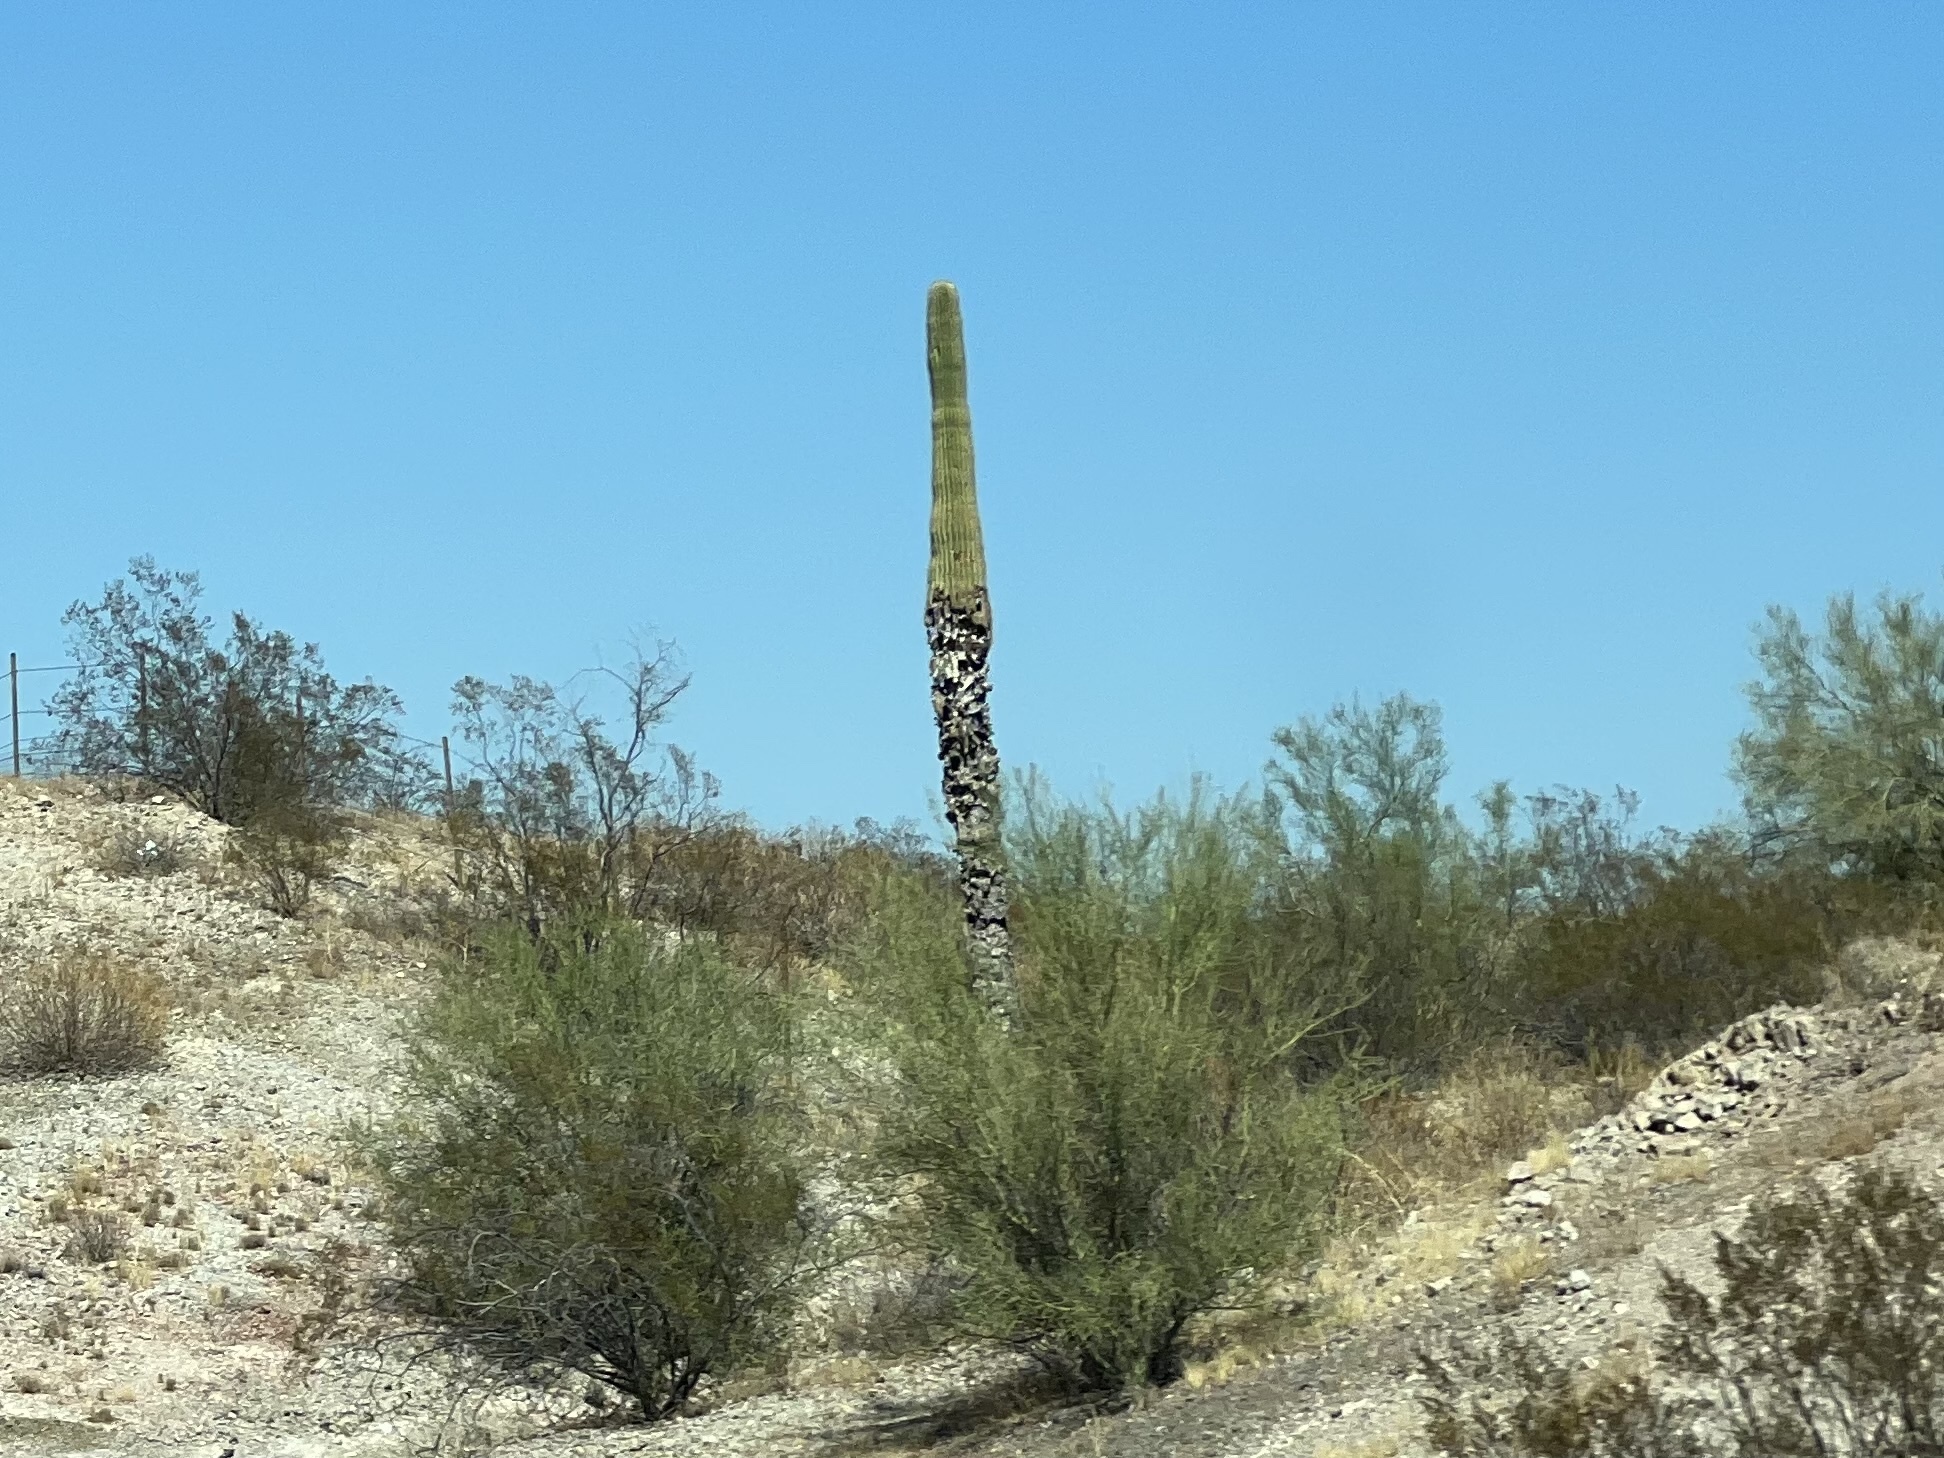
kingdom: Plantae
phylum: Tracheophyta
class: Magnoliopsida
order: Caryophyllales
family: Cactaceae
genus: Carnegiea
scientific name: Carnegiea gigantea
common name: Saguaro
